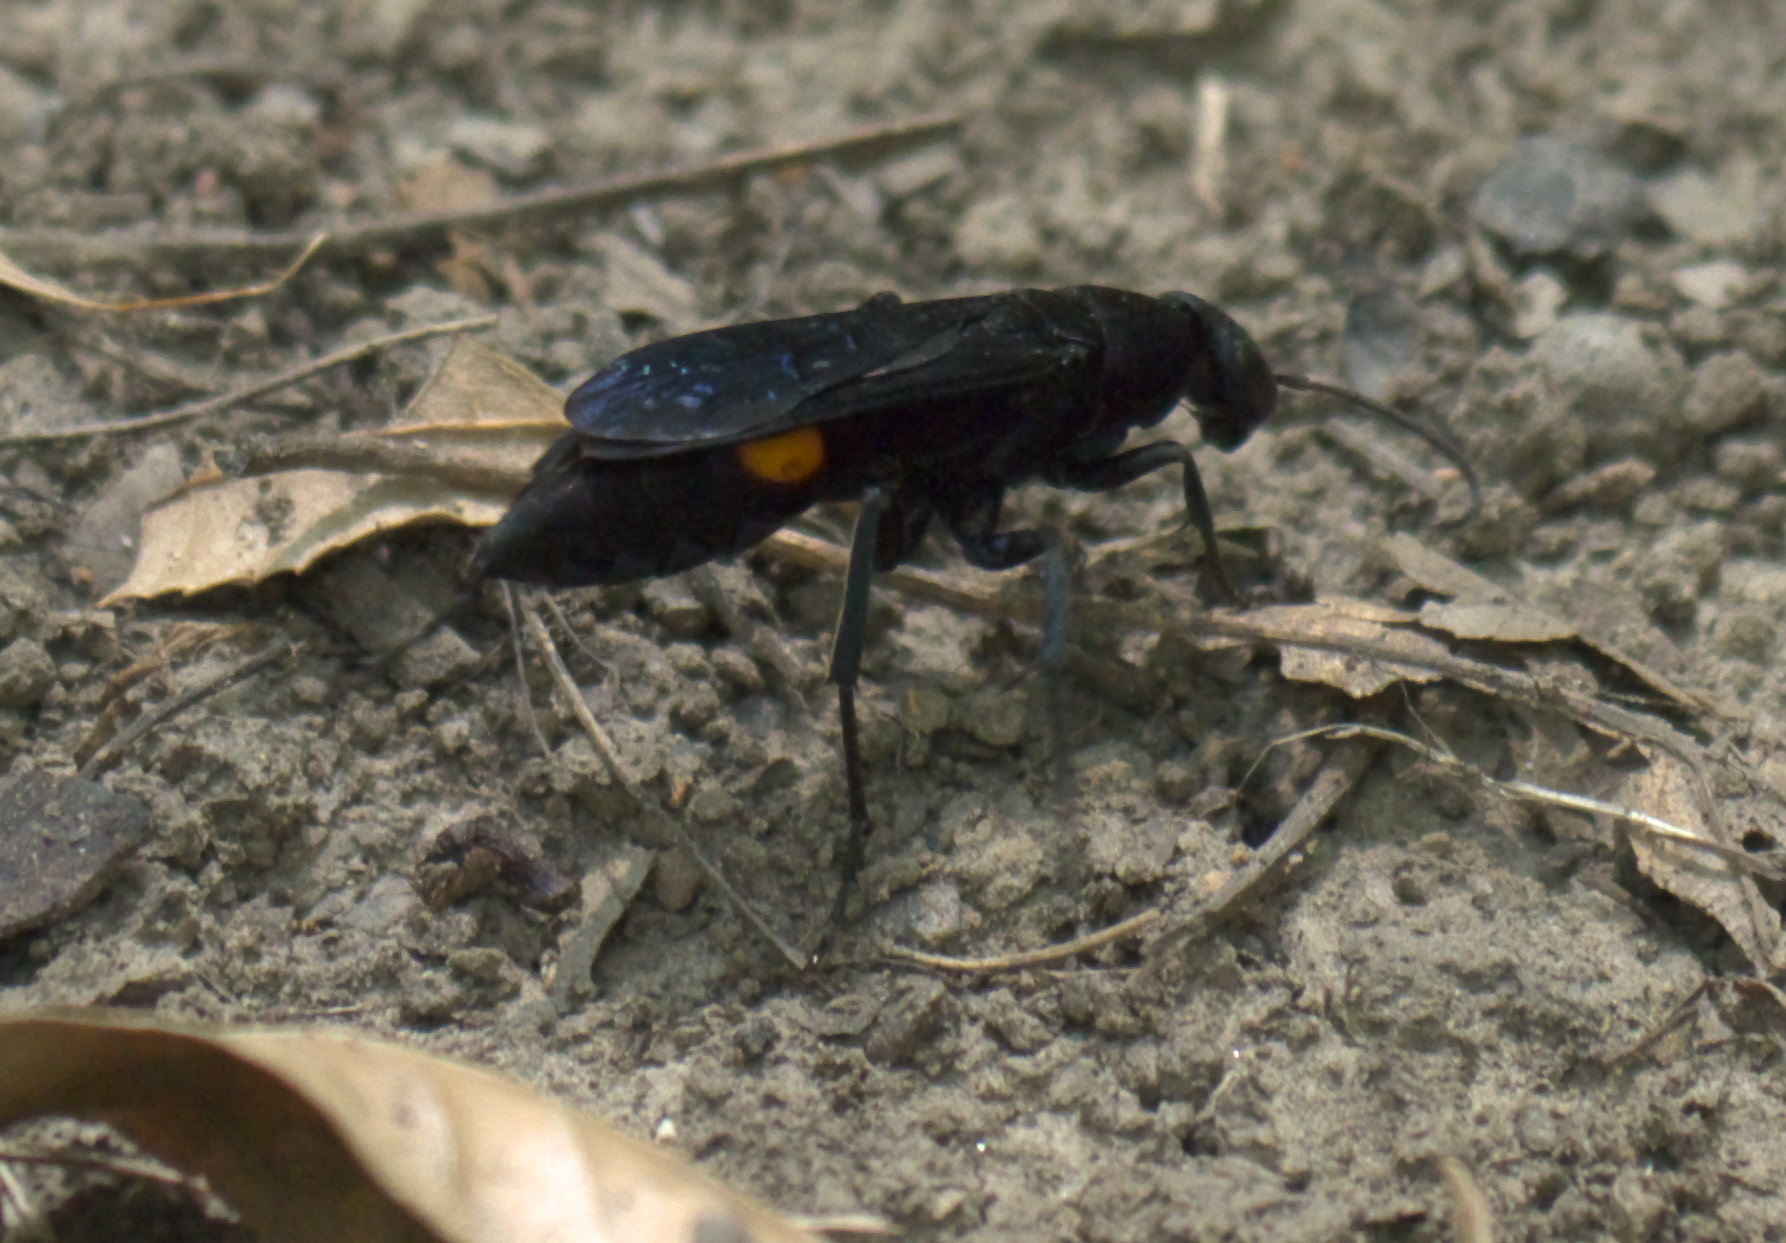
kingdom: Animalia
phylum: Arthropoda
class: Insecta
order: Hymenoptera
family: Pompilidae
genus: Psorthaspis
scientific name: Psorthaspis brimleyi
